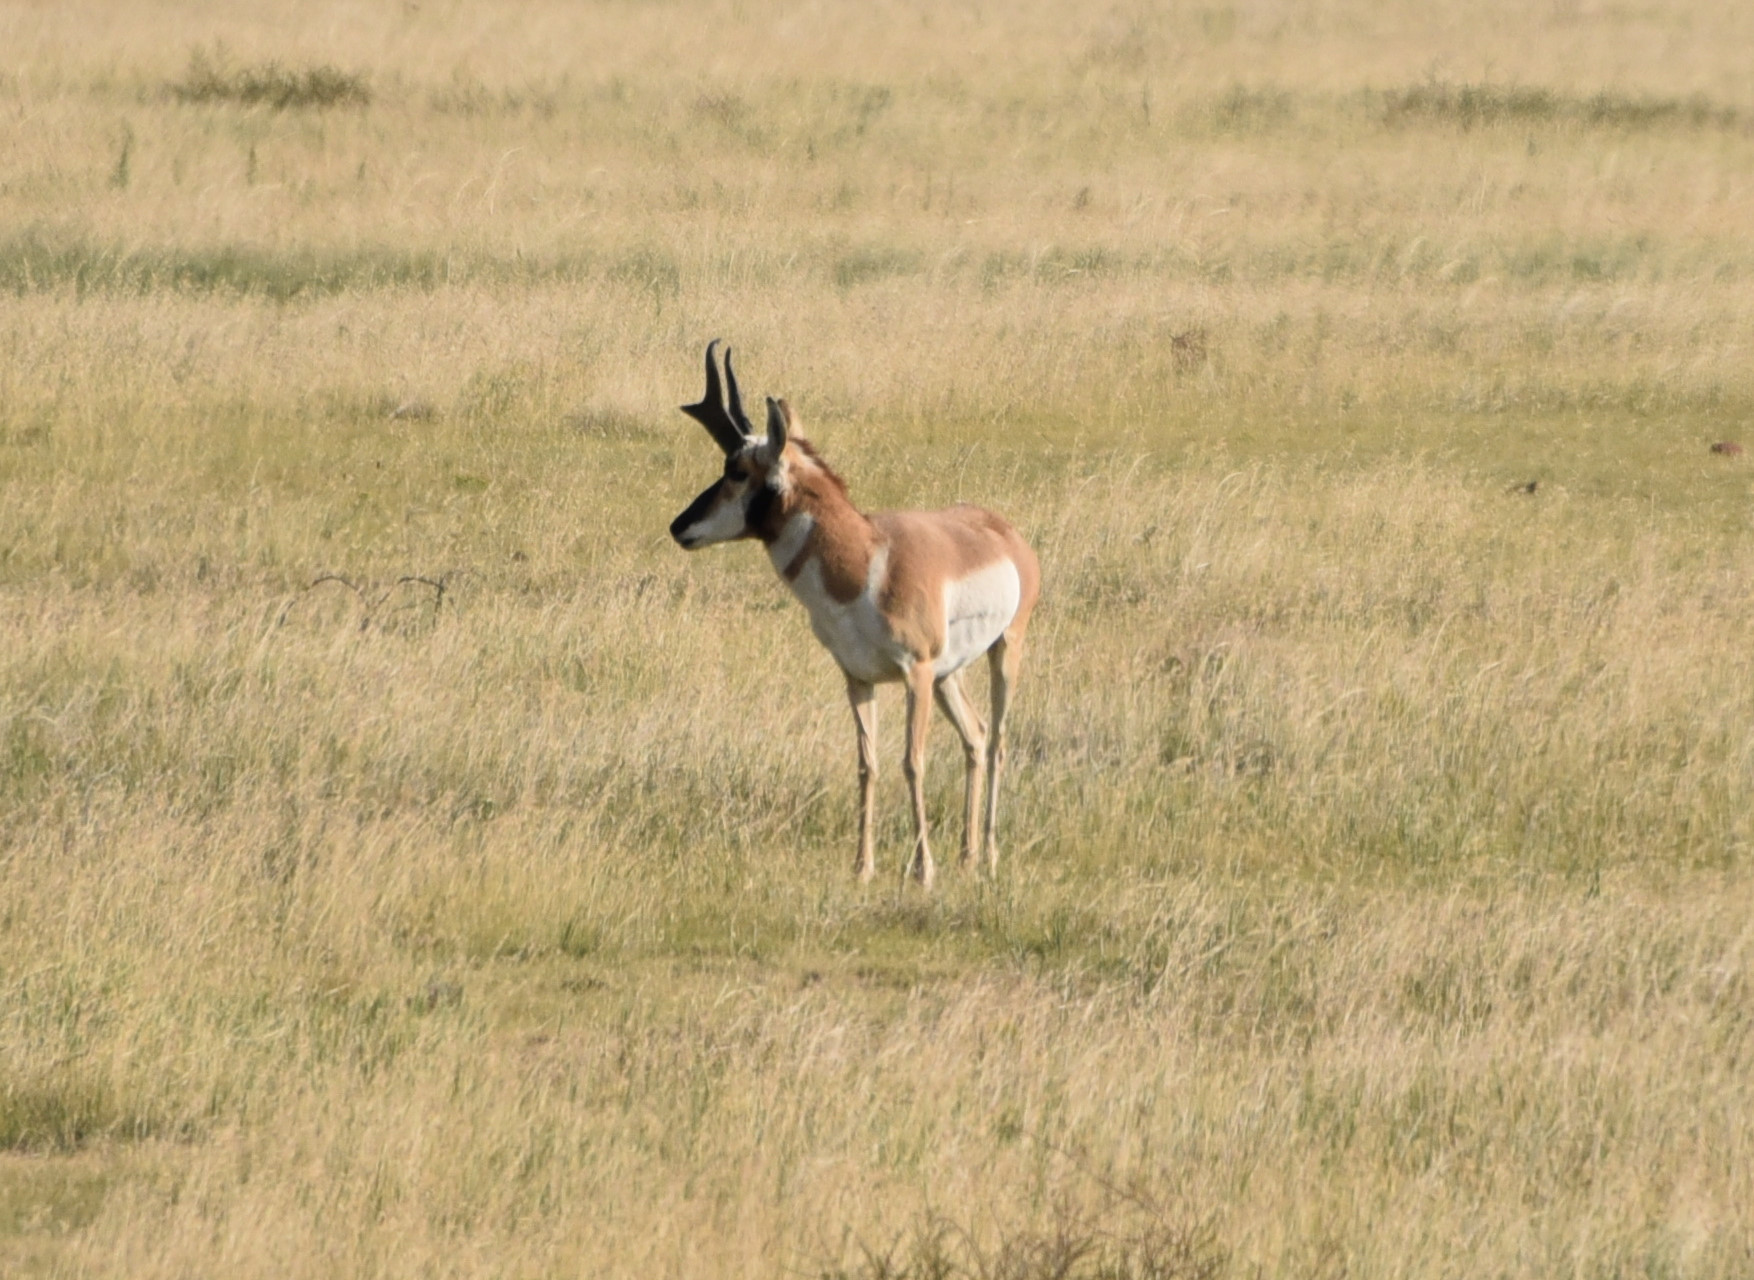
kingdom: Animalia
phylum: Chordata
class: Mammalia
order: Artiodactyla
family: Antilocapridae
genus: Antilocapra
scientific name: Antilocapra americana
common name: Pronghorn
